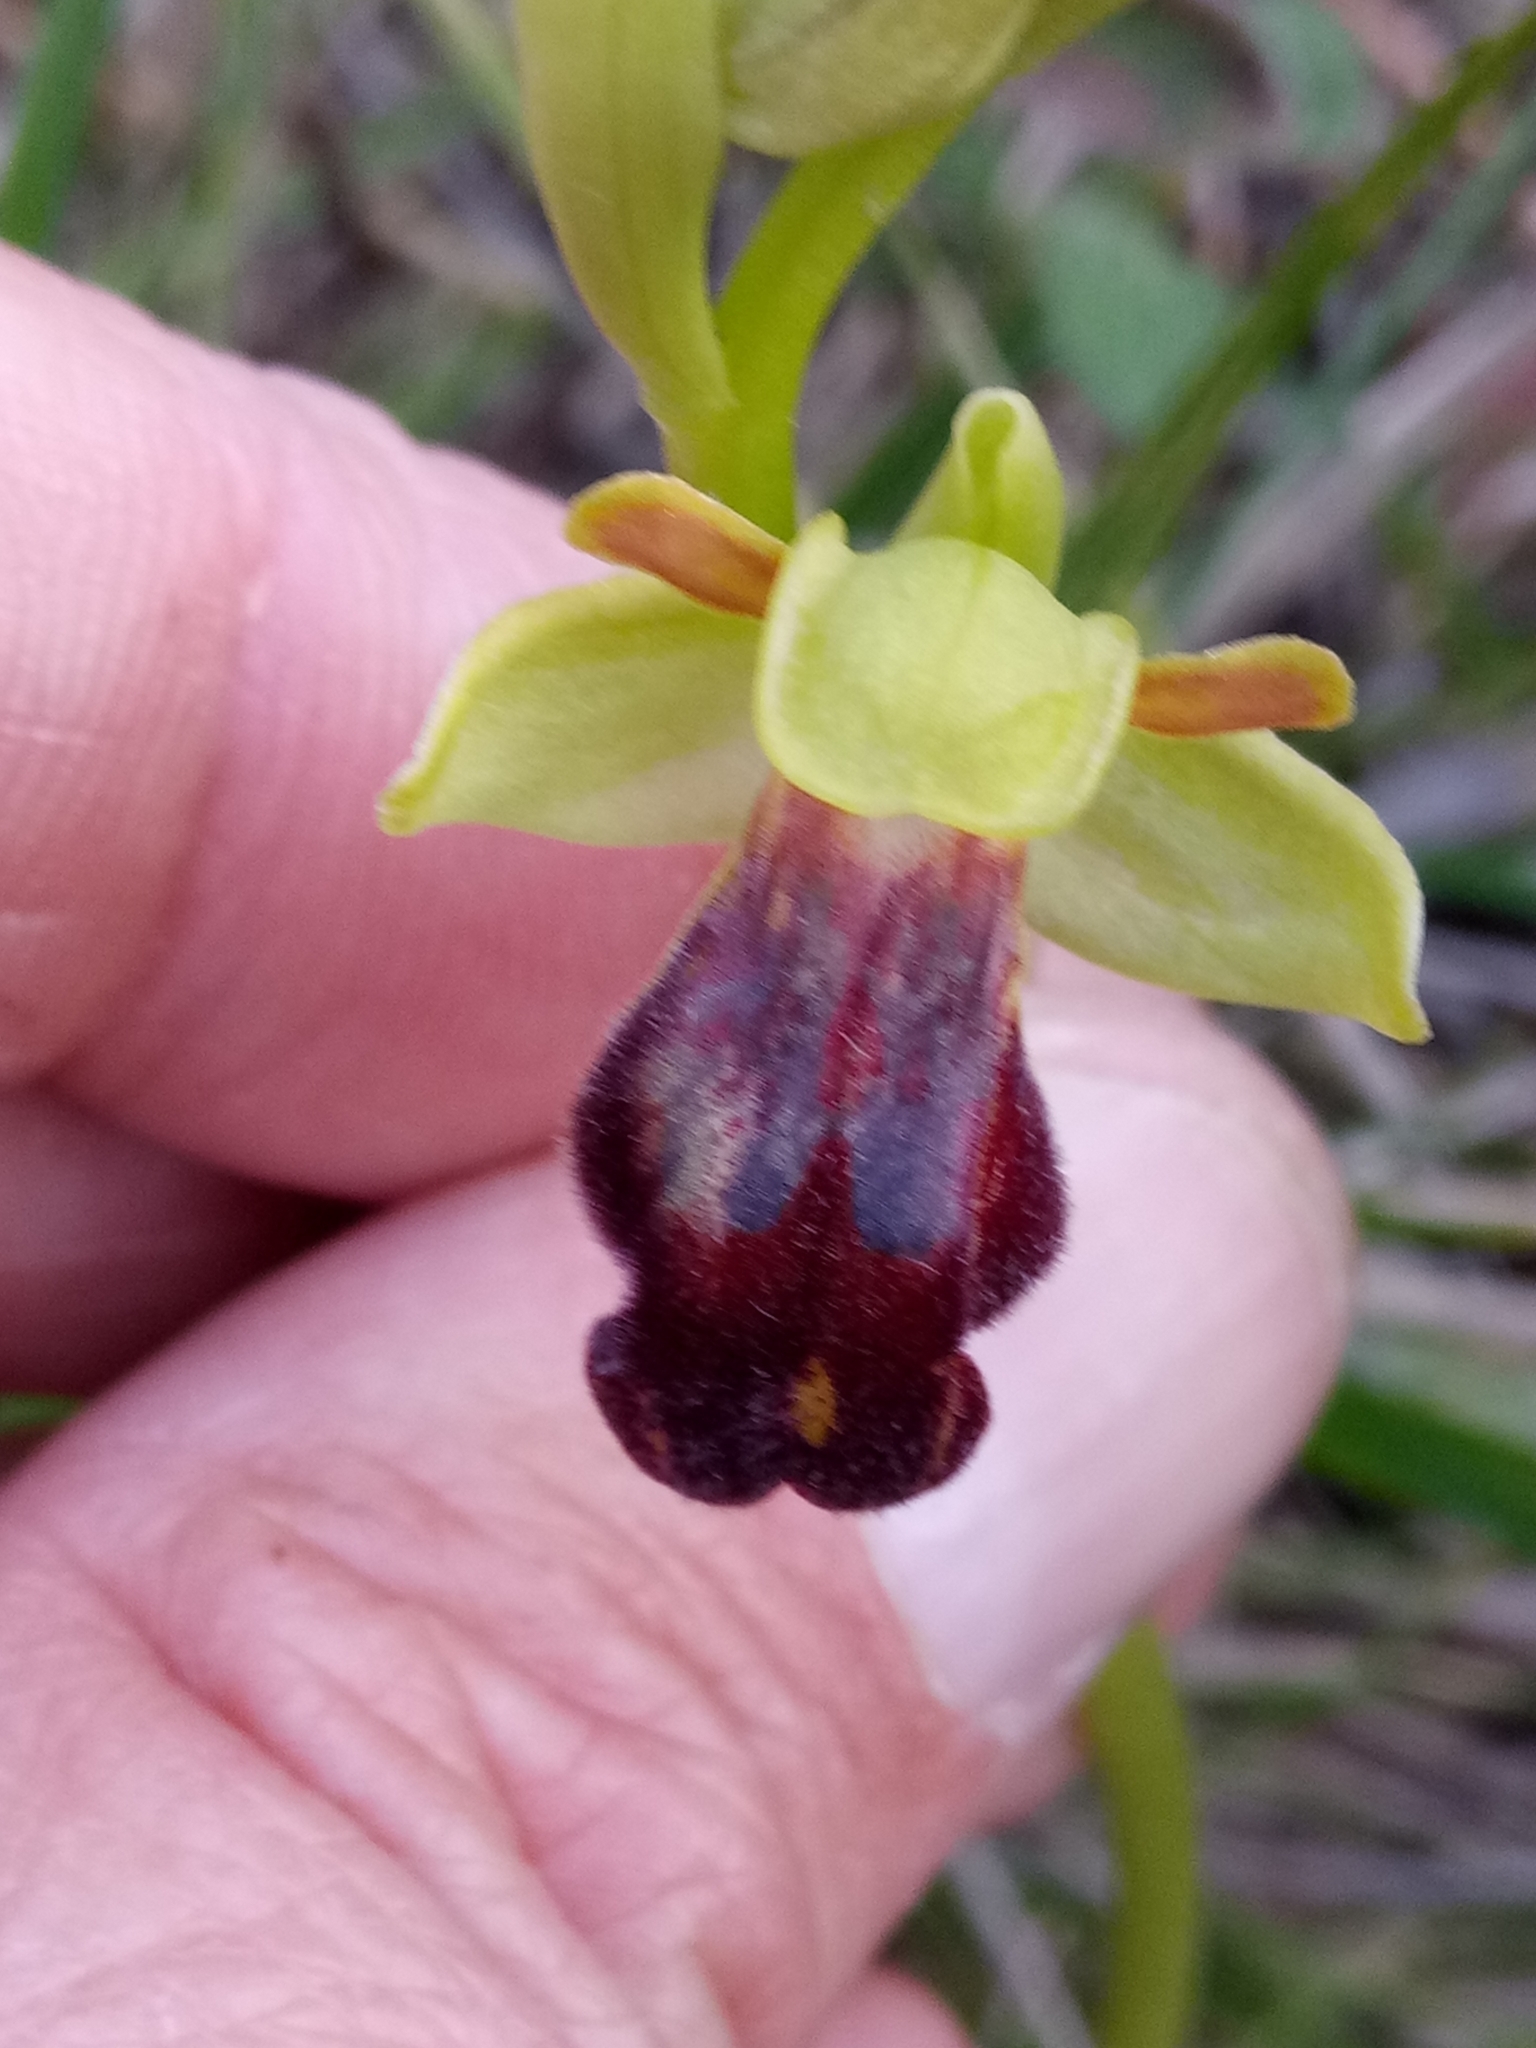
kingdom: Plantae
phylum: Tracheophyta
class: Liliopsida
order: Asparagales
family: Orchidaceae
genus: Ophrys
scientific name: Ophrys fusca
